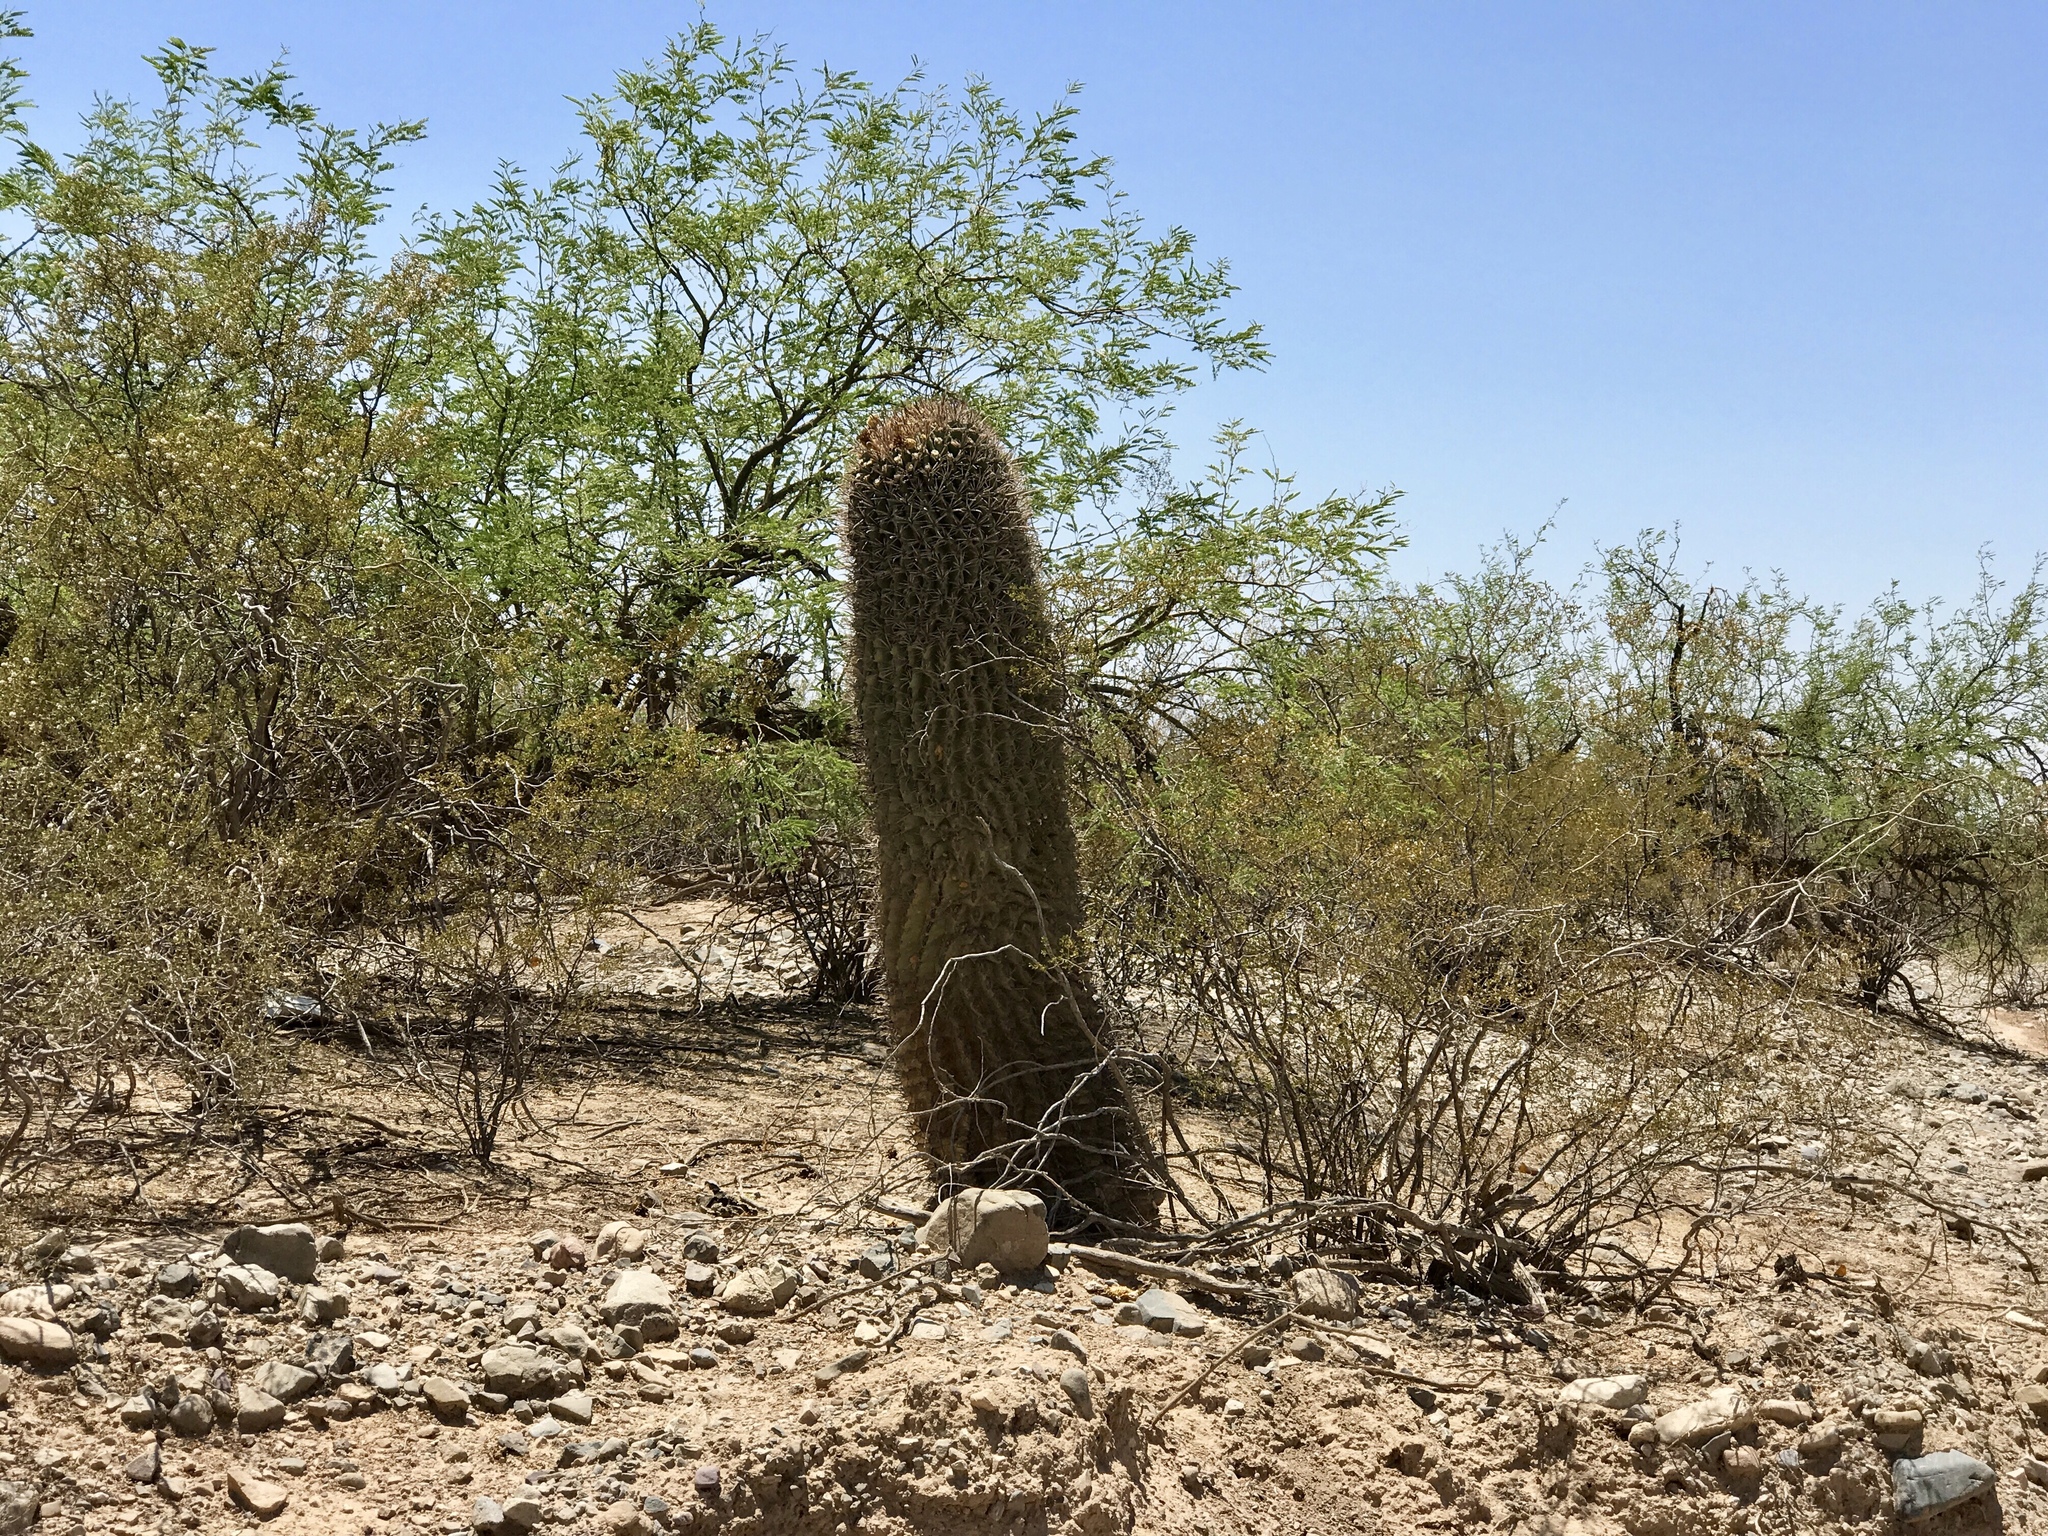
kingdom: Plantae
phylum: Tracheophyta
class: Magnoliopsida
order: Caryophyllales
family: Cactaceae
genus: Ferocactus
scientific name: Ferocactus wislizeni
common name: Candy barrel cactus
